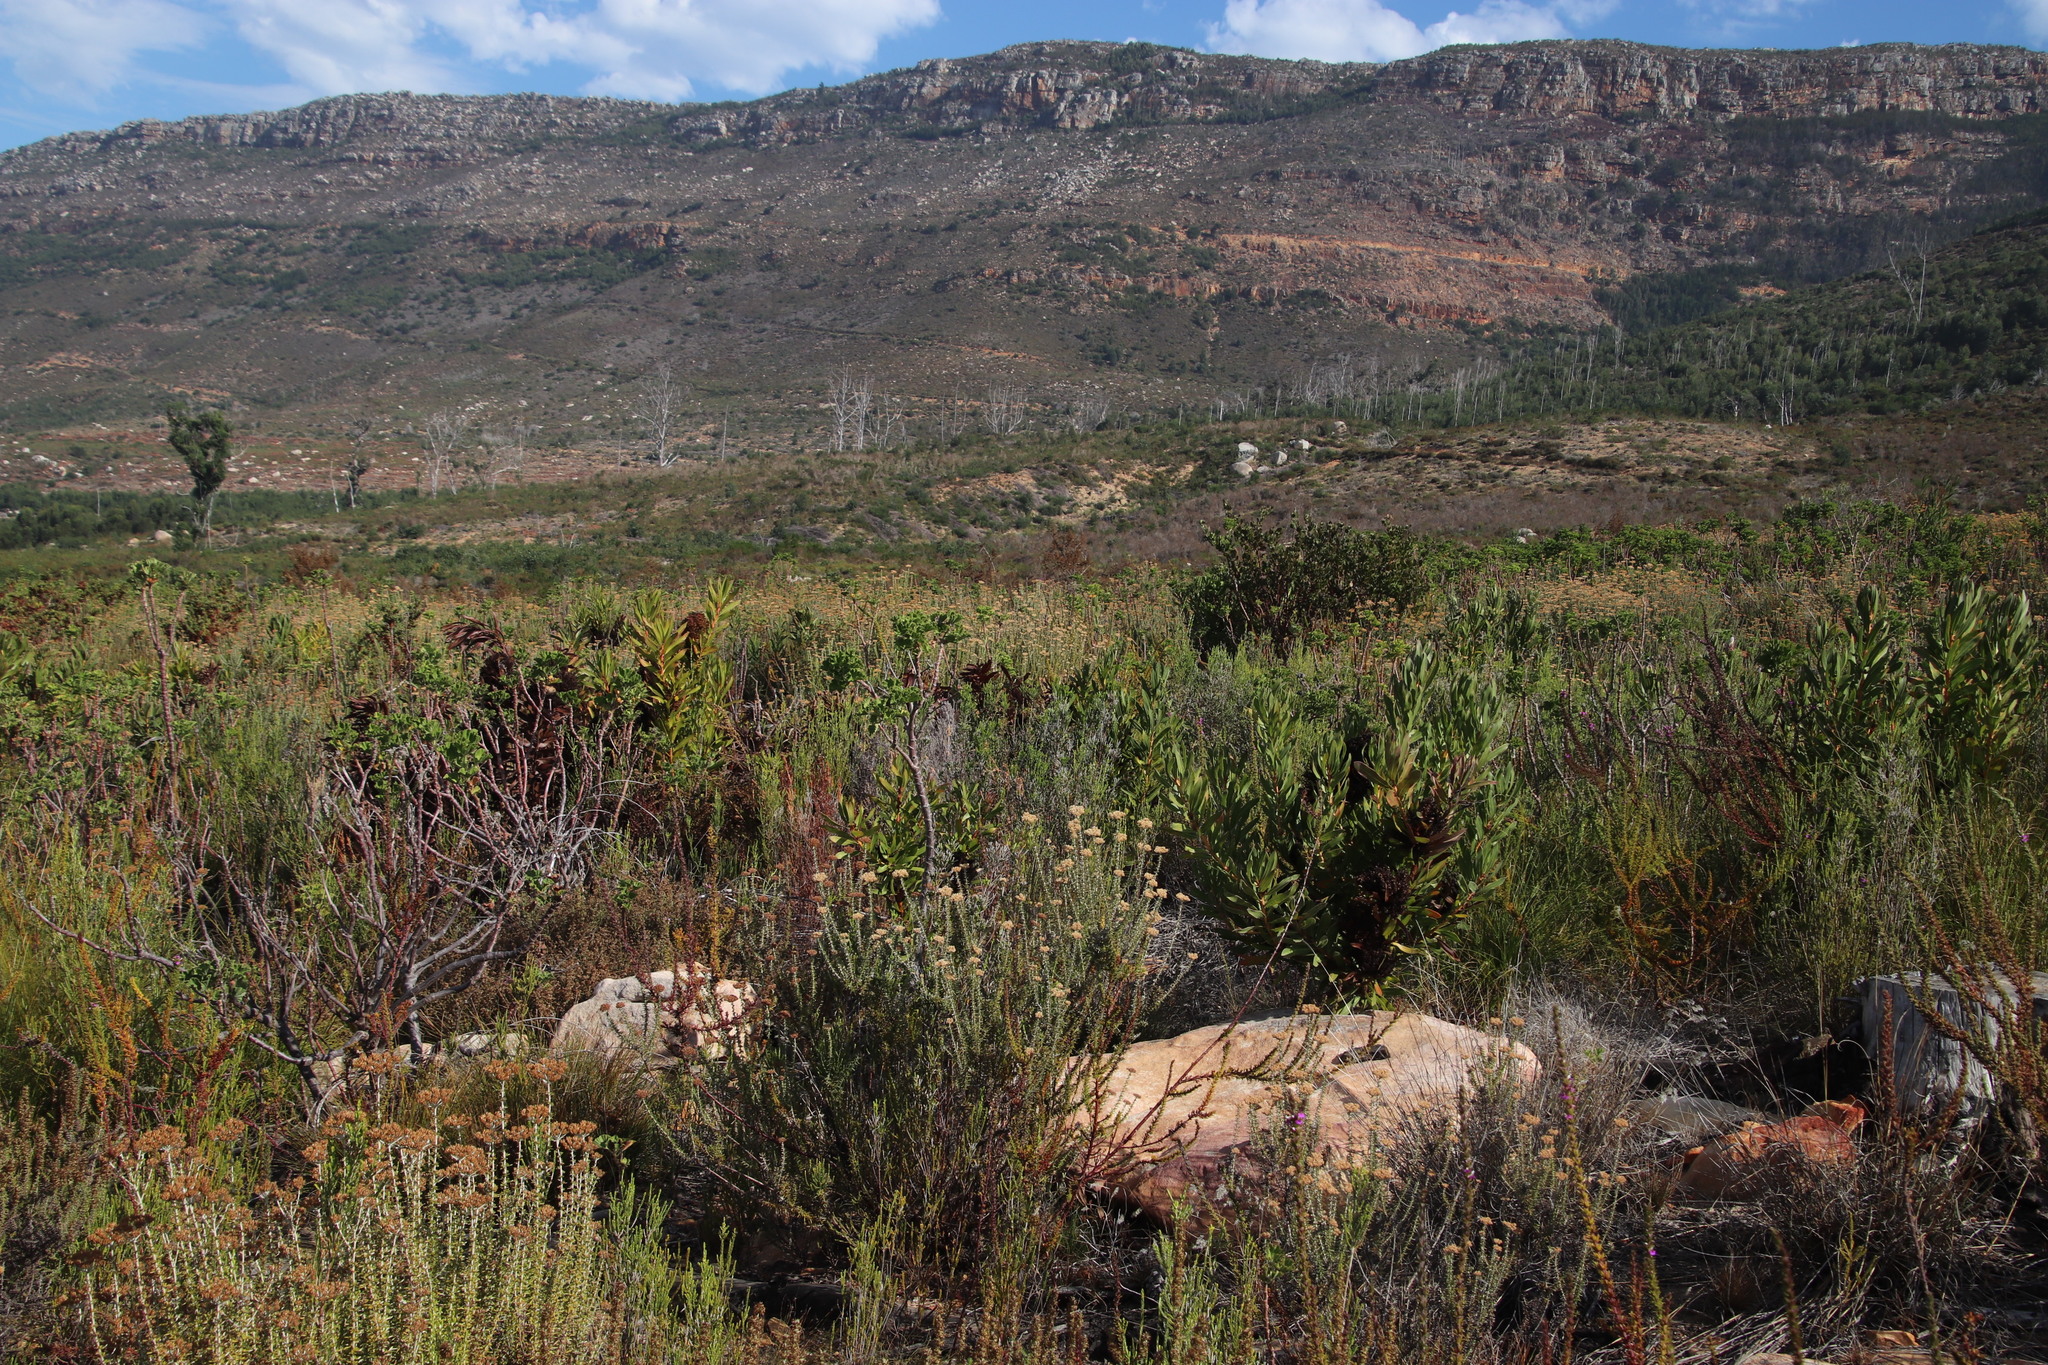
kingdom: Bacteria
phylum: Firmicutes
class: Bacilli
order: Acholeplasmatales
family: Acholeplasmataceae
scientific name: Acholeplasmataceae
